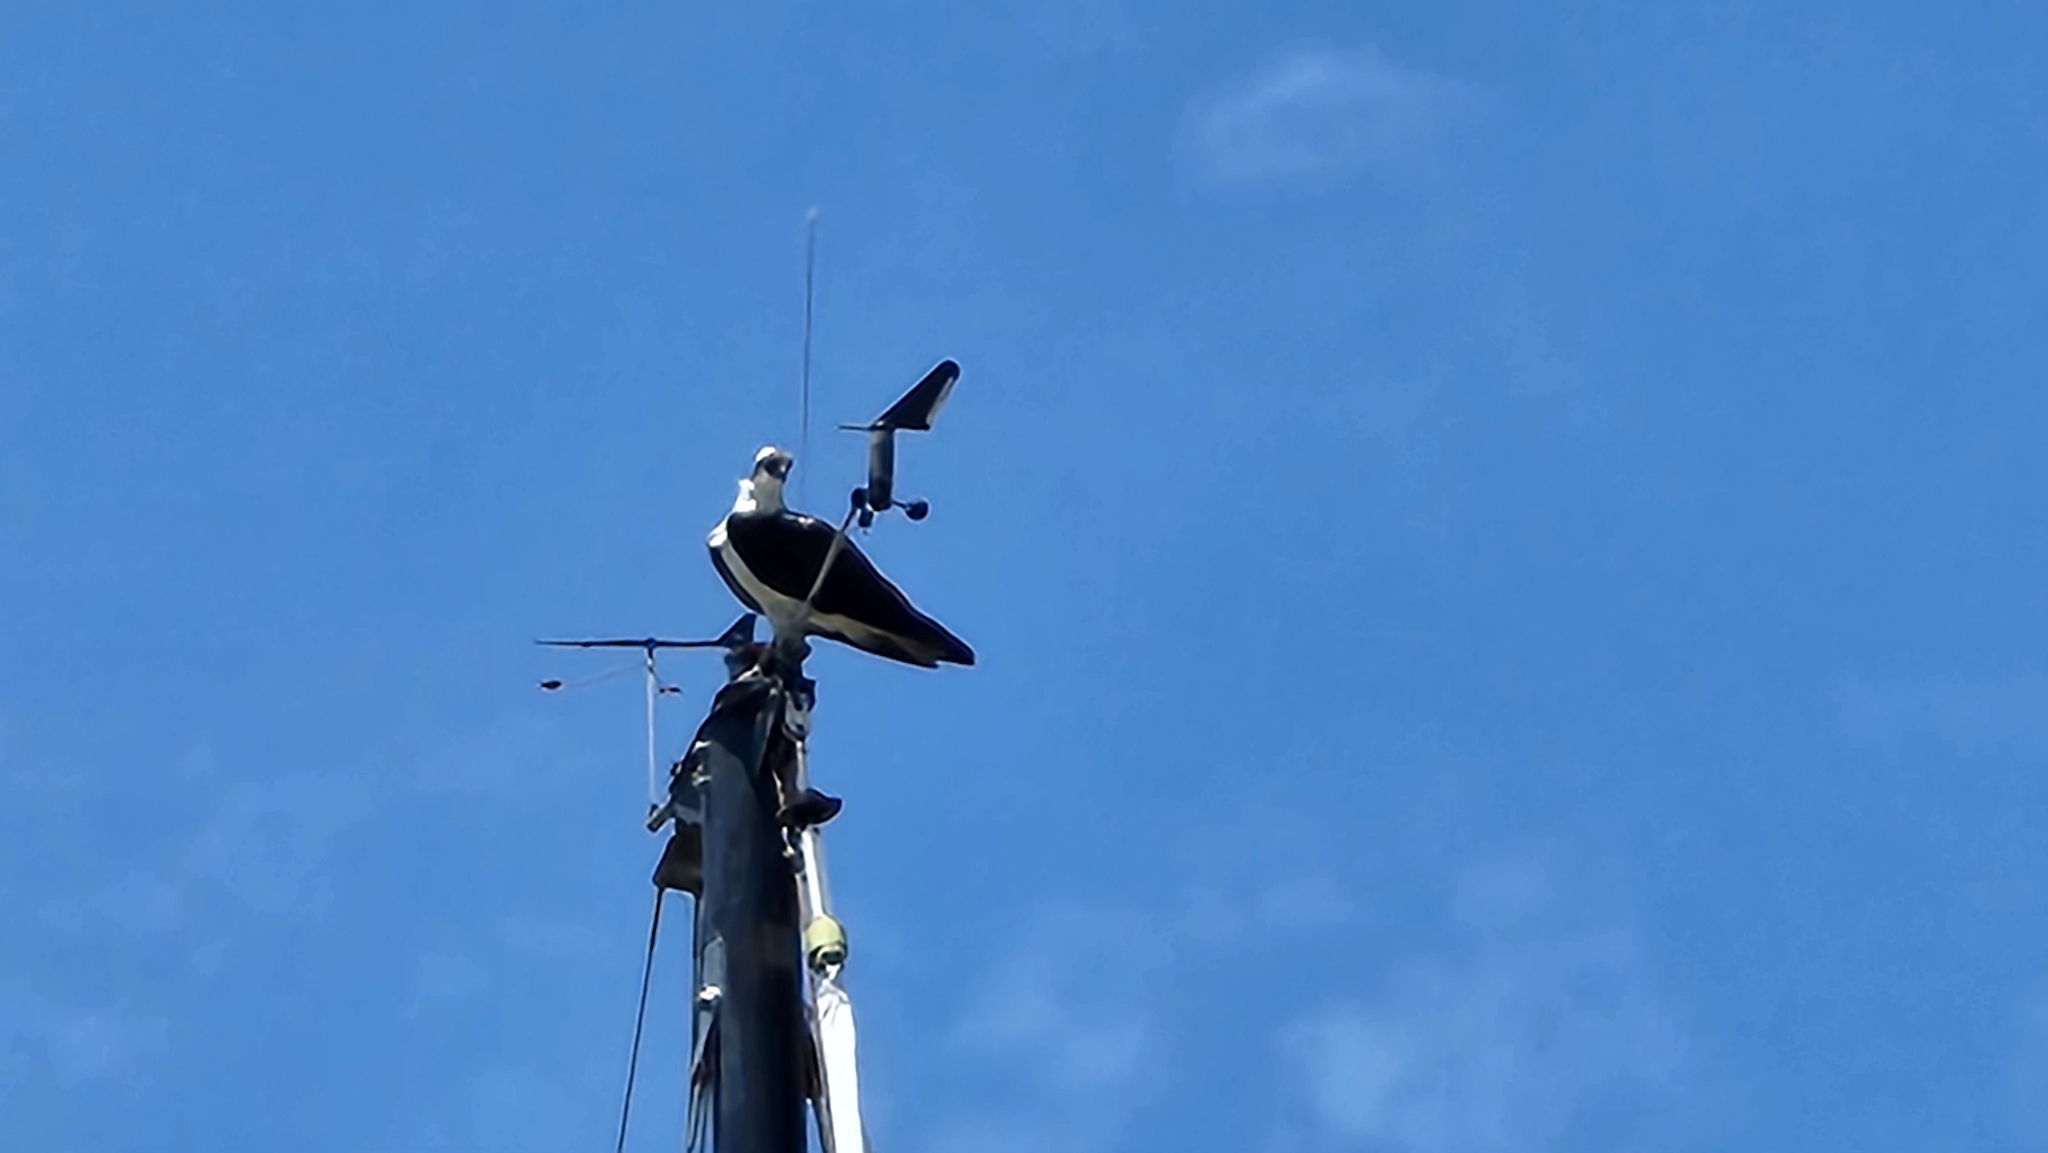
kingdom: Animalia
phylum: Chordata
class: Aves
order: Accipitriformes
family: Pandionidae
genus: Pandion
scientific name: Pandion haliaetus
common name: Osprey
